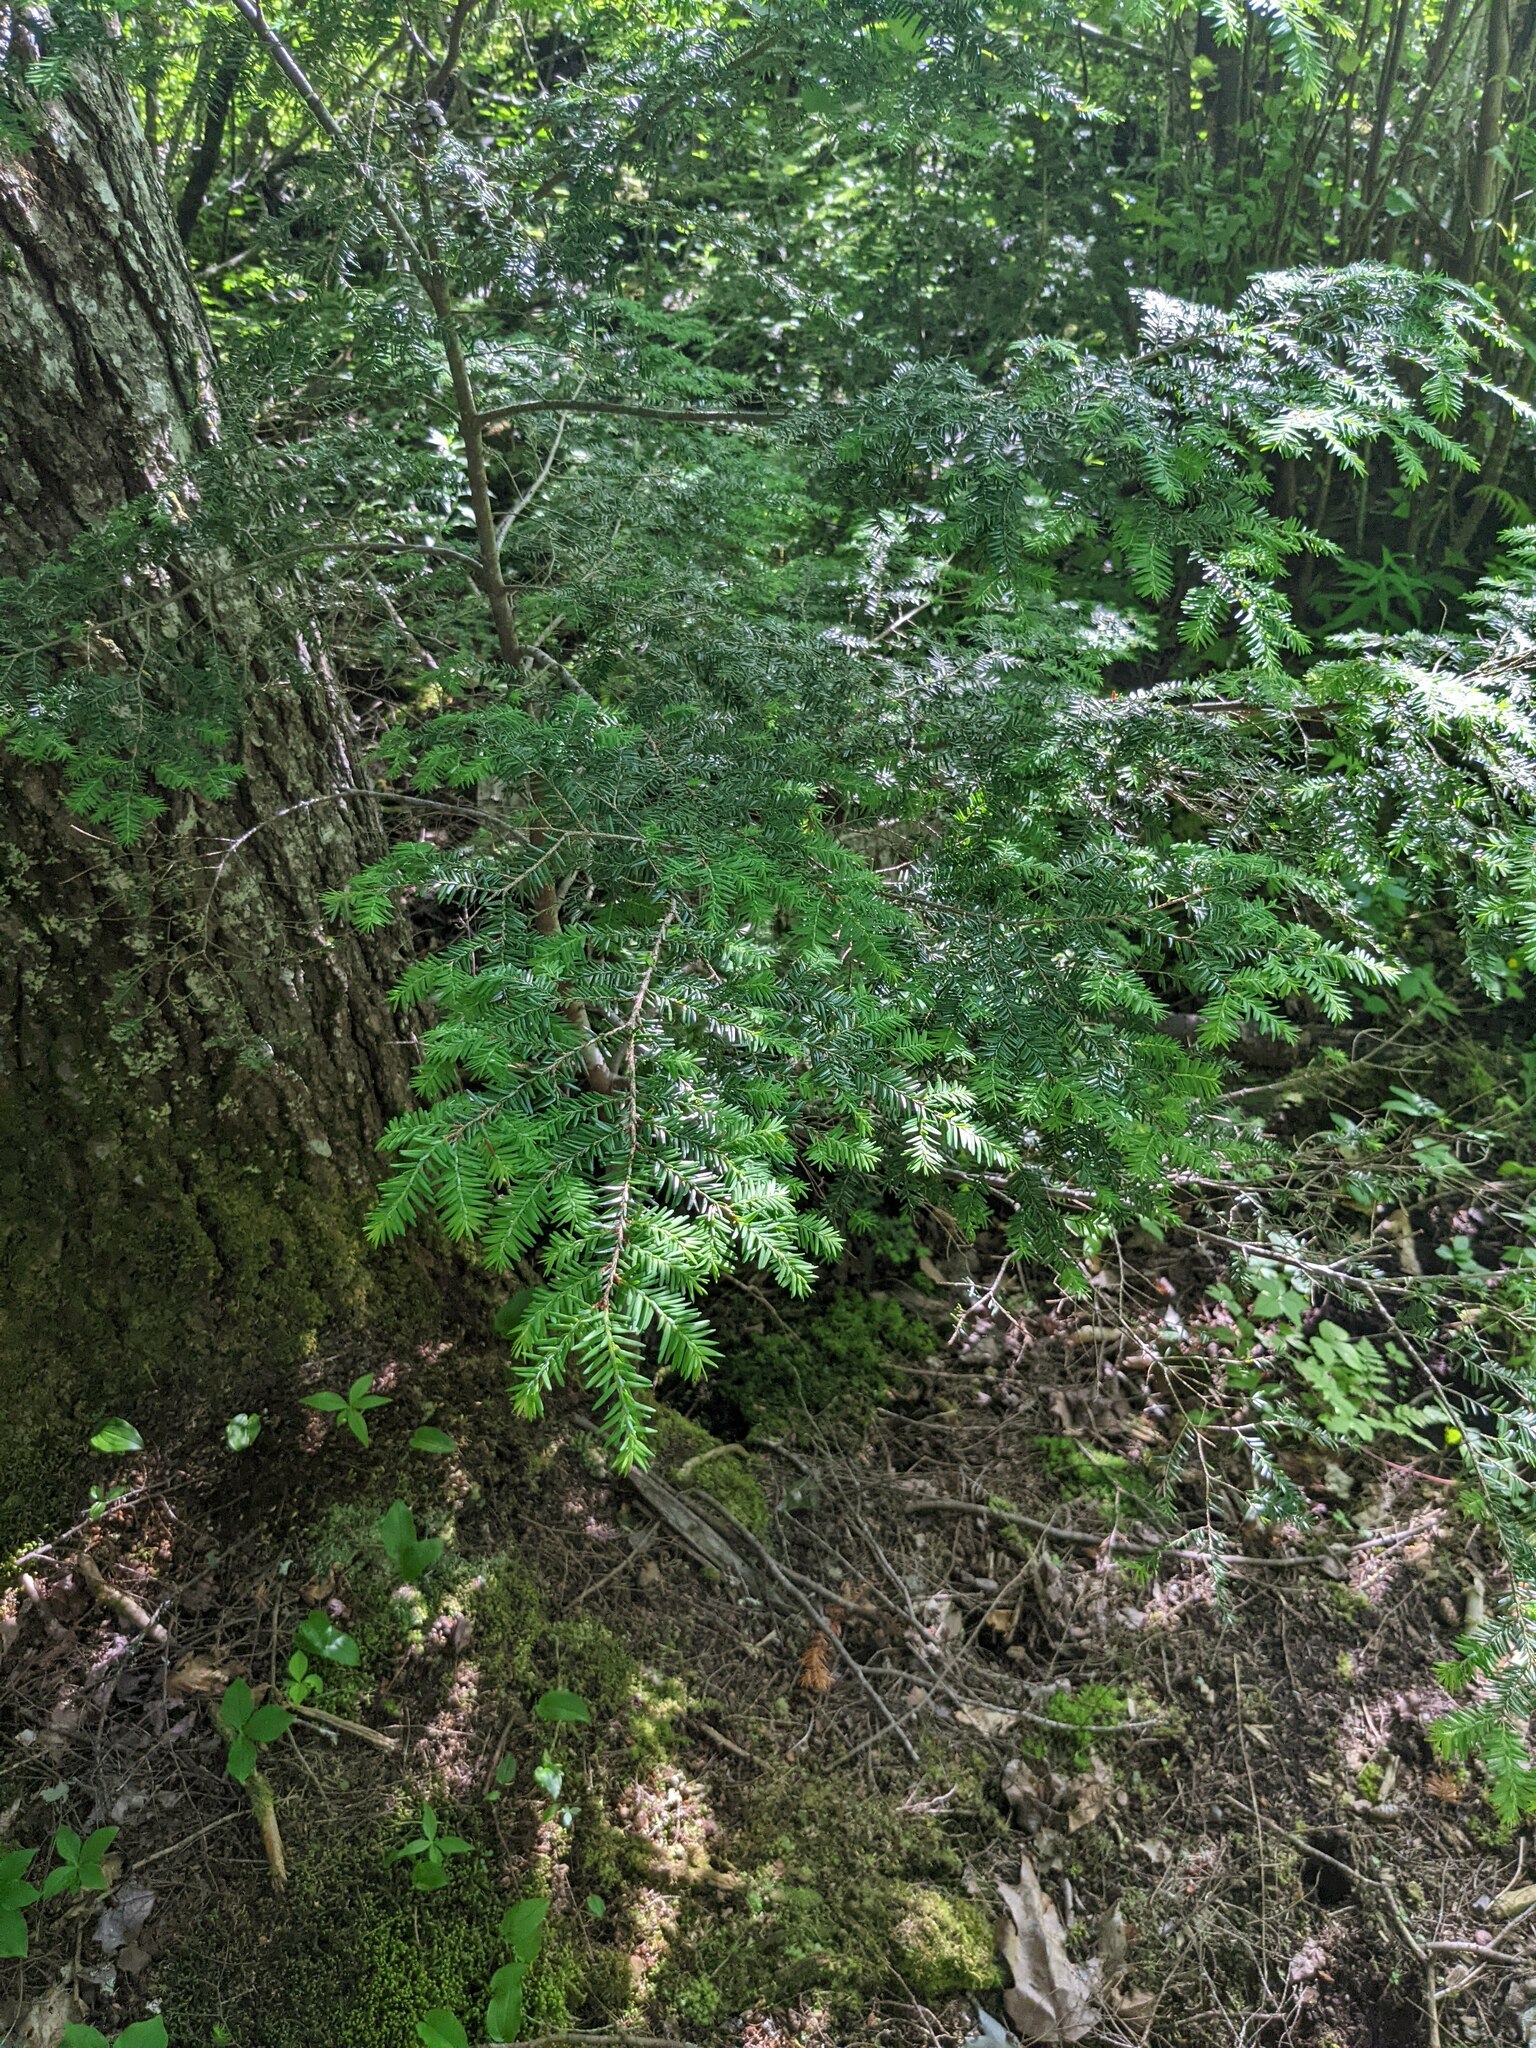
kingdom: Plantae
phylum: Tracheophyta
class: Pinopsida
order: Pinales
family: Pinaceae
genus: Tsuga
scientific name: Tsuga canadensis
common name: Eastern hemlock
